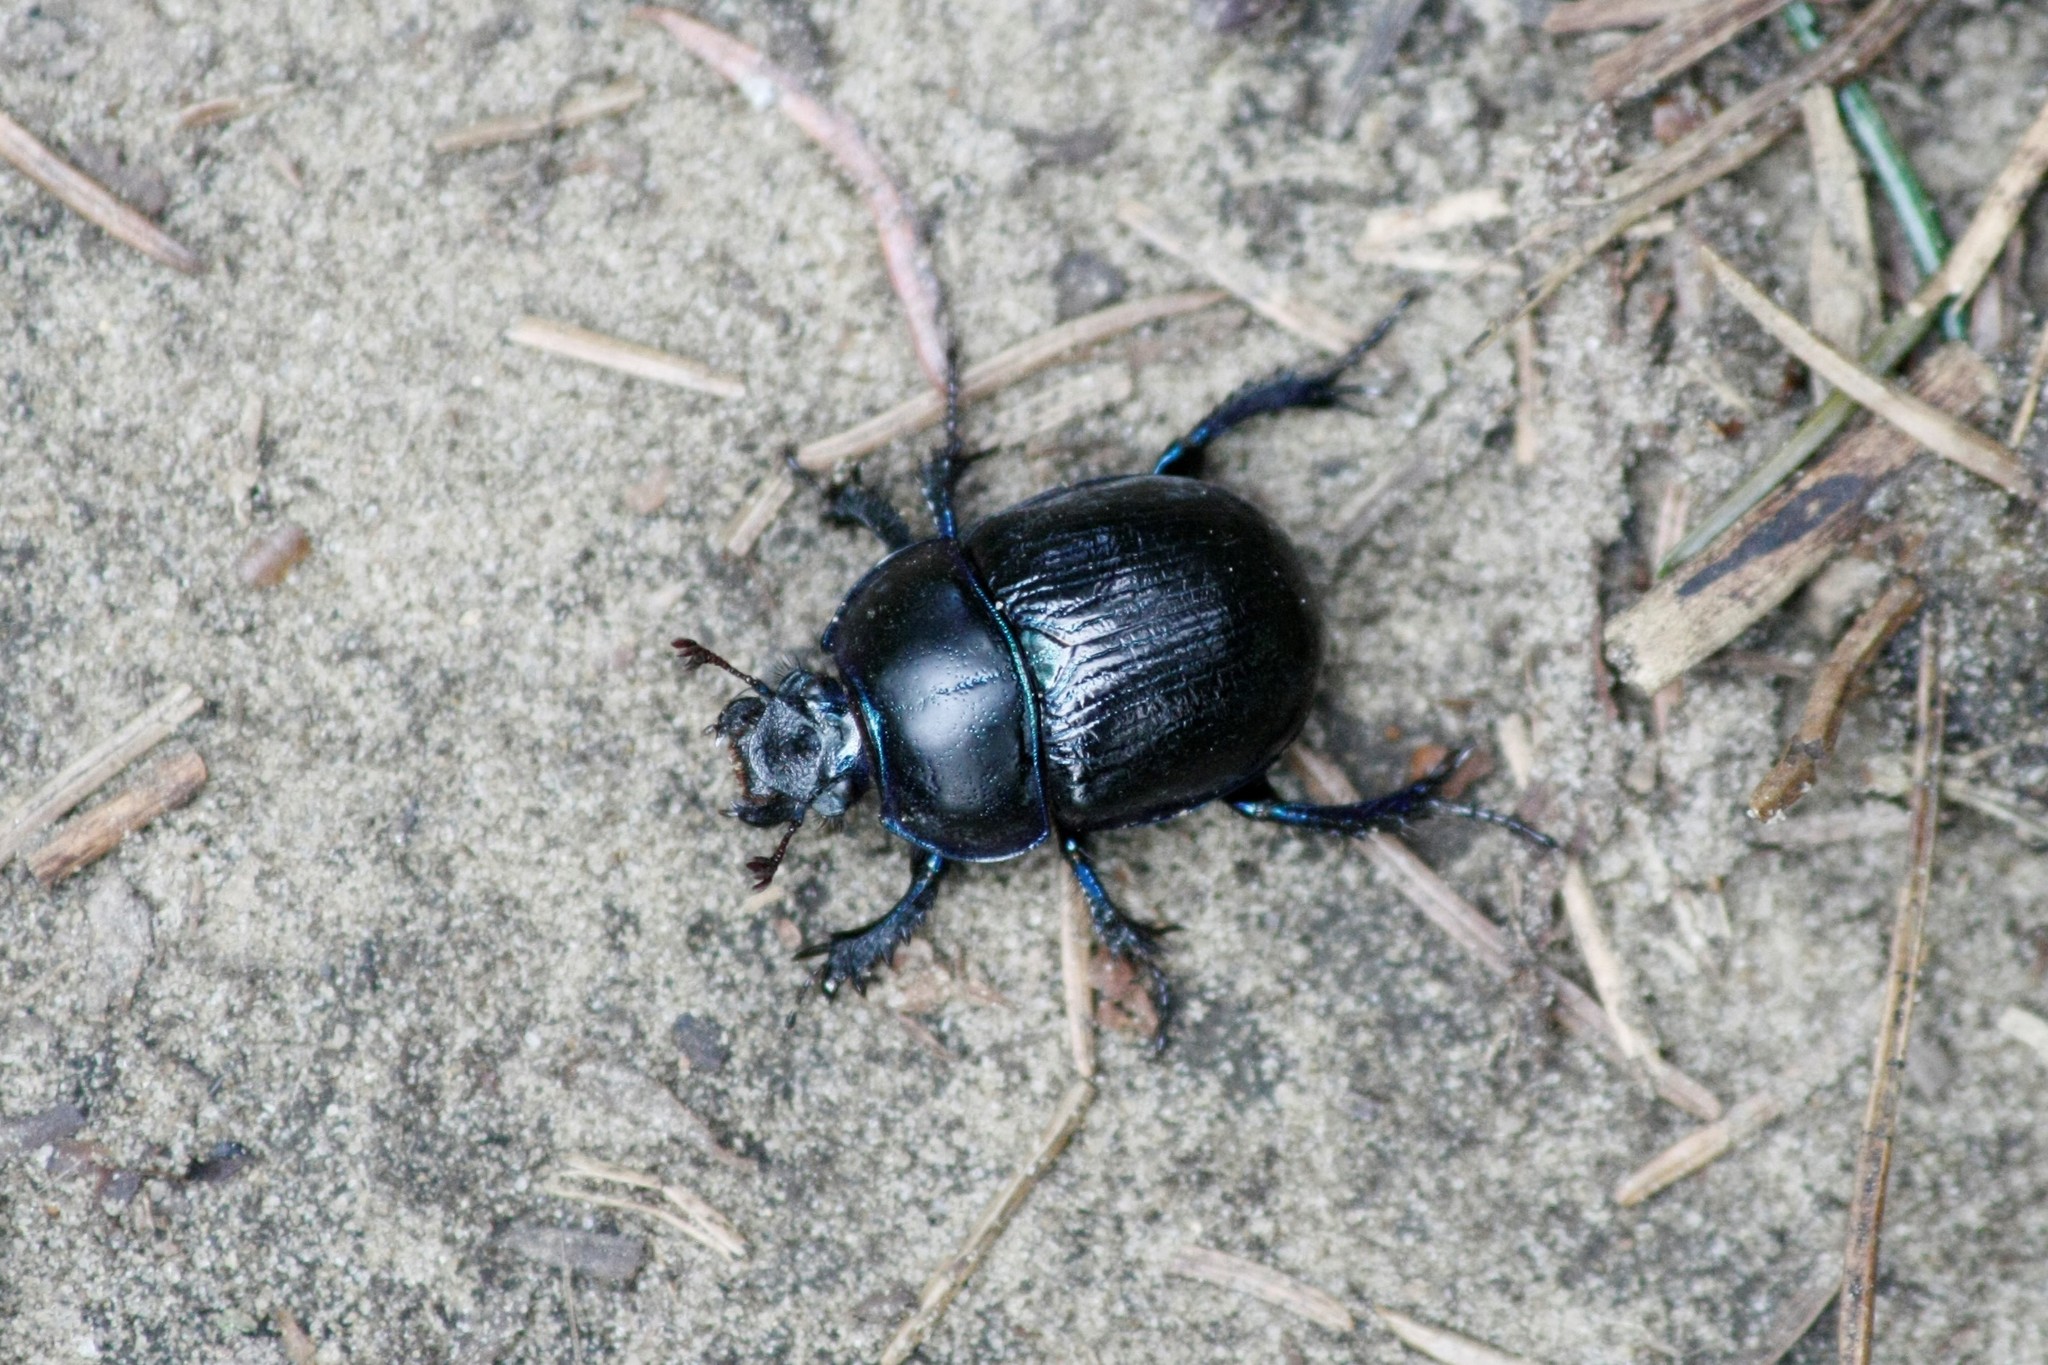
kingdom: Animalia
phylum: Arthropoda
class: Insecta
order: Coleoptera
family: Geotrupidae
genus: Anoplotrupes
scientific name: Anoplotrupes stercorosus
